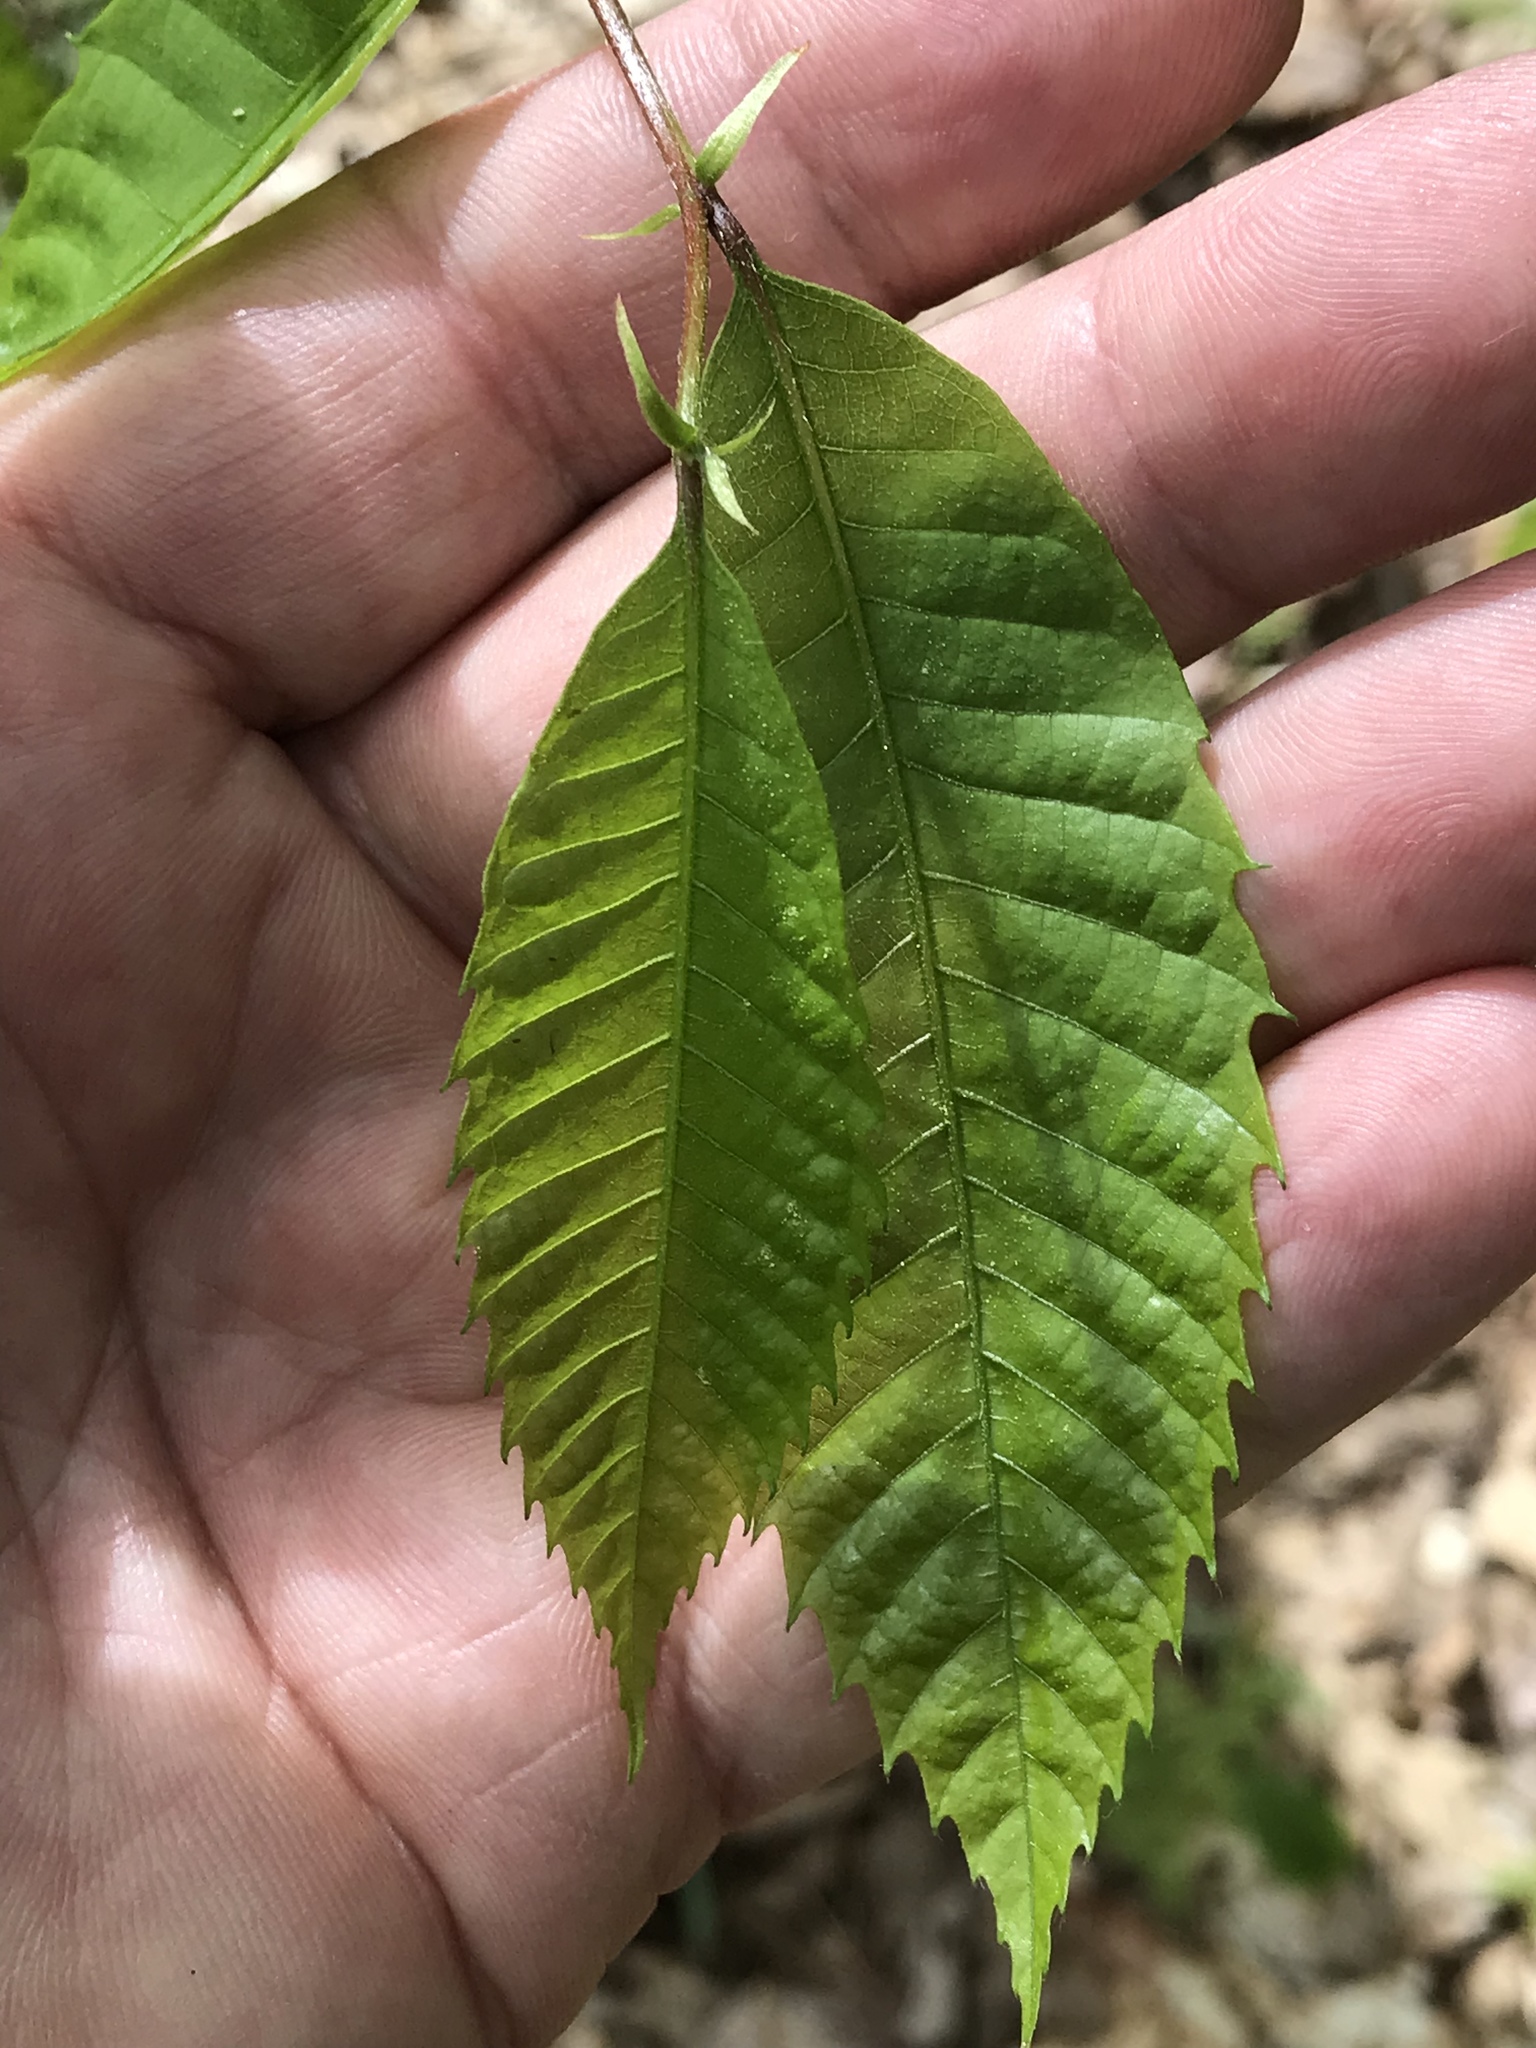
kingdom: Plantae
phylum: Tracheophyta
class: Magnoliopsida
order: Fagales
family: Fagaceae
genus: Castanea
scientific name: Castanea dentata
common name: American chestnut
